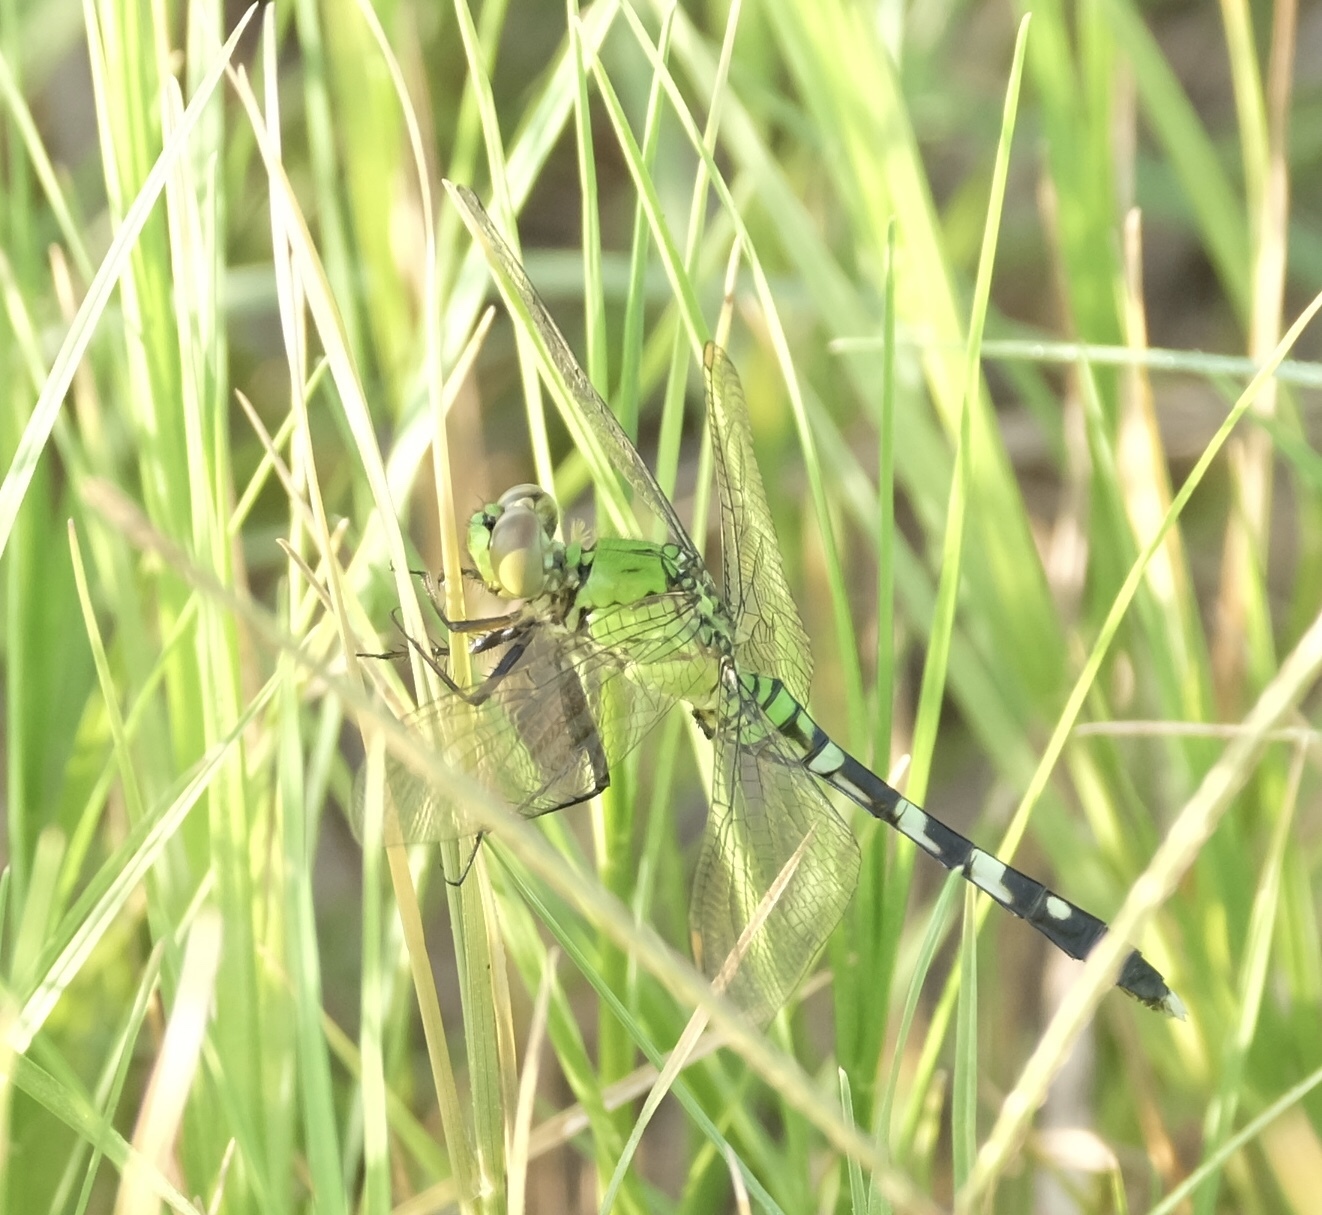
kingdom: Animalia
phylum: Arthropoda
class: Insecta
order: Odonata
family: Libellulidae
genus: Erythemis
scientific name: Erythemis simplicicollis
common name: Eastern pondhawk
